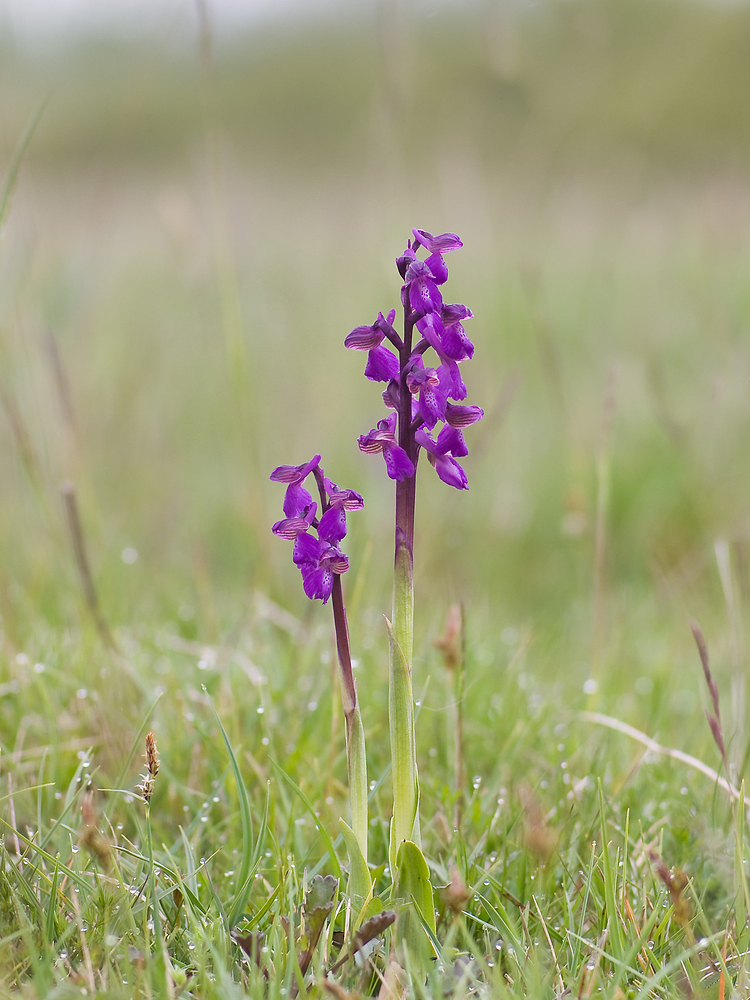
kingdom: Plantae
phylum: Tracheophyta
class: Liliopsida
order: Asparagales
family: Orchidaceae
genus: Anacamptis
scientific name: Anacamptis morio
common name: Green-winged orchid
